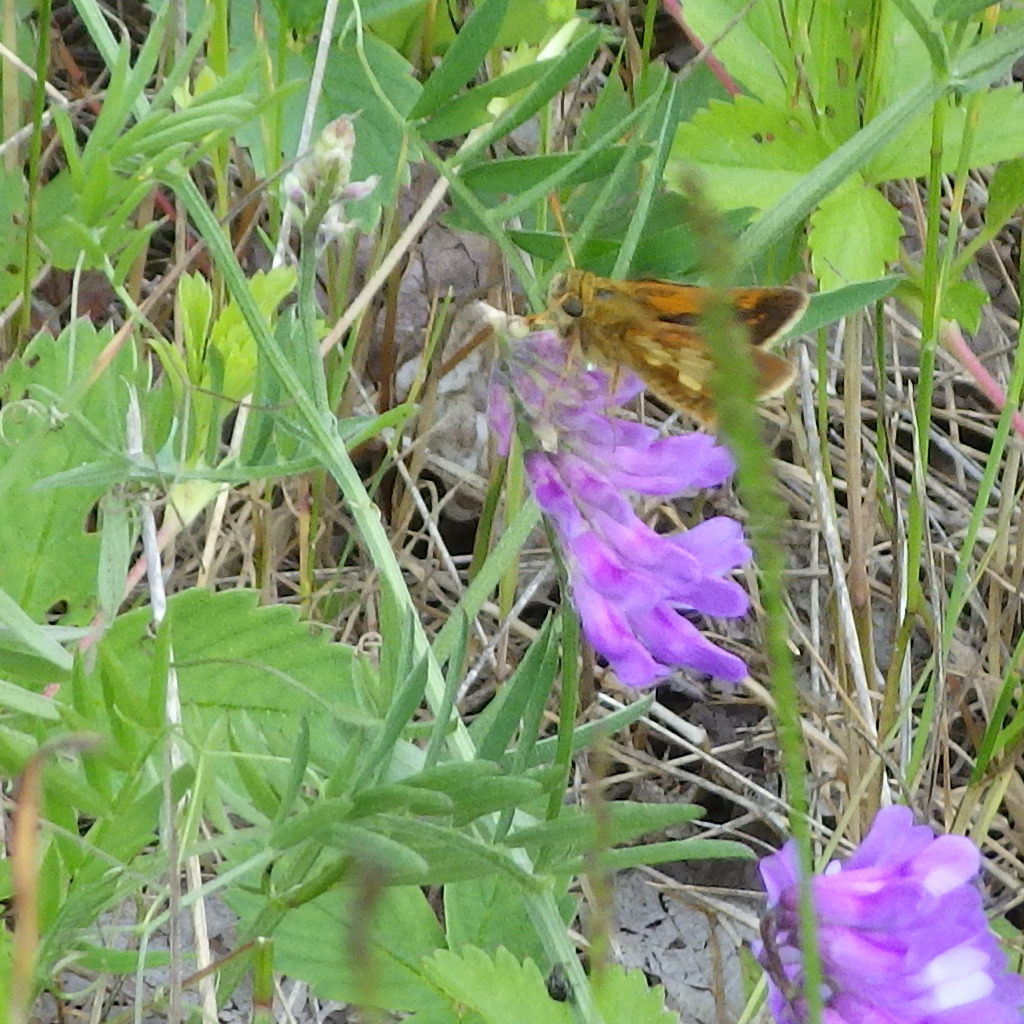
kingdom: Animalia
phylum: Arthropoda
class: Insecta
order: Lepidoptera
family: Hesperiidae
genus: Polites
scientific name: Polites coras
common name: Peck's skipper
